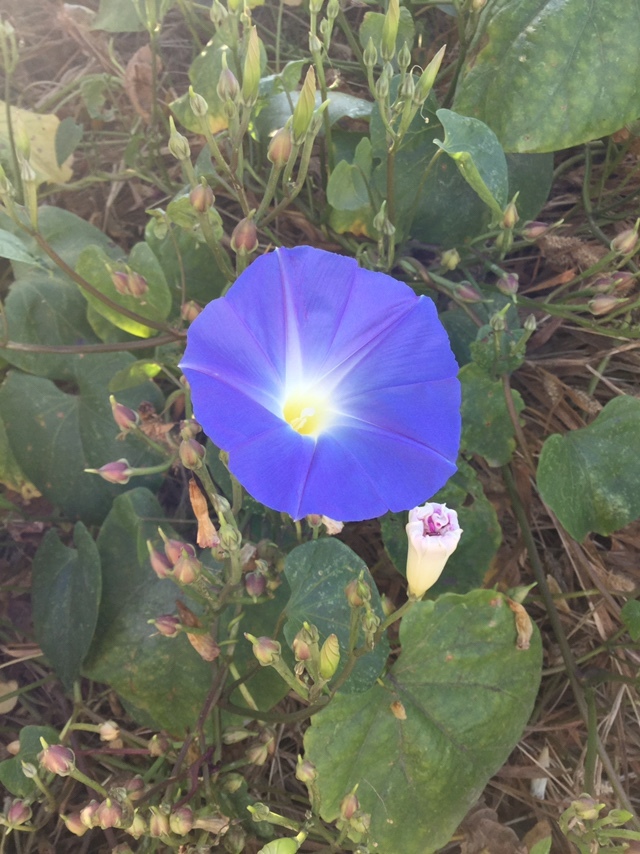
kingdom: Plantae
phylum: Tracheophyta
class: Magnoliopsida
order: Solanales
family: Convolvulaceae
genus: Ipomoea
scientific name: Ipomoea tricolor
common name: Morning-glory
